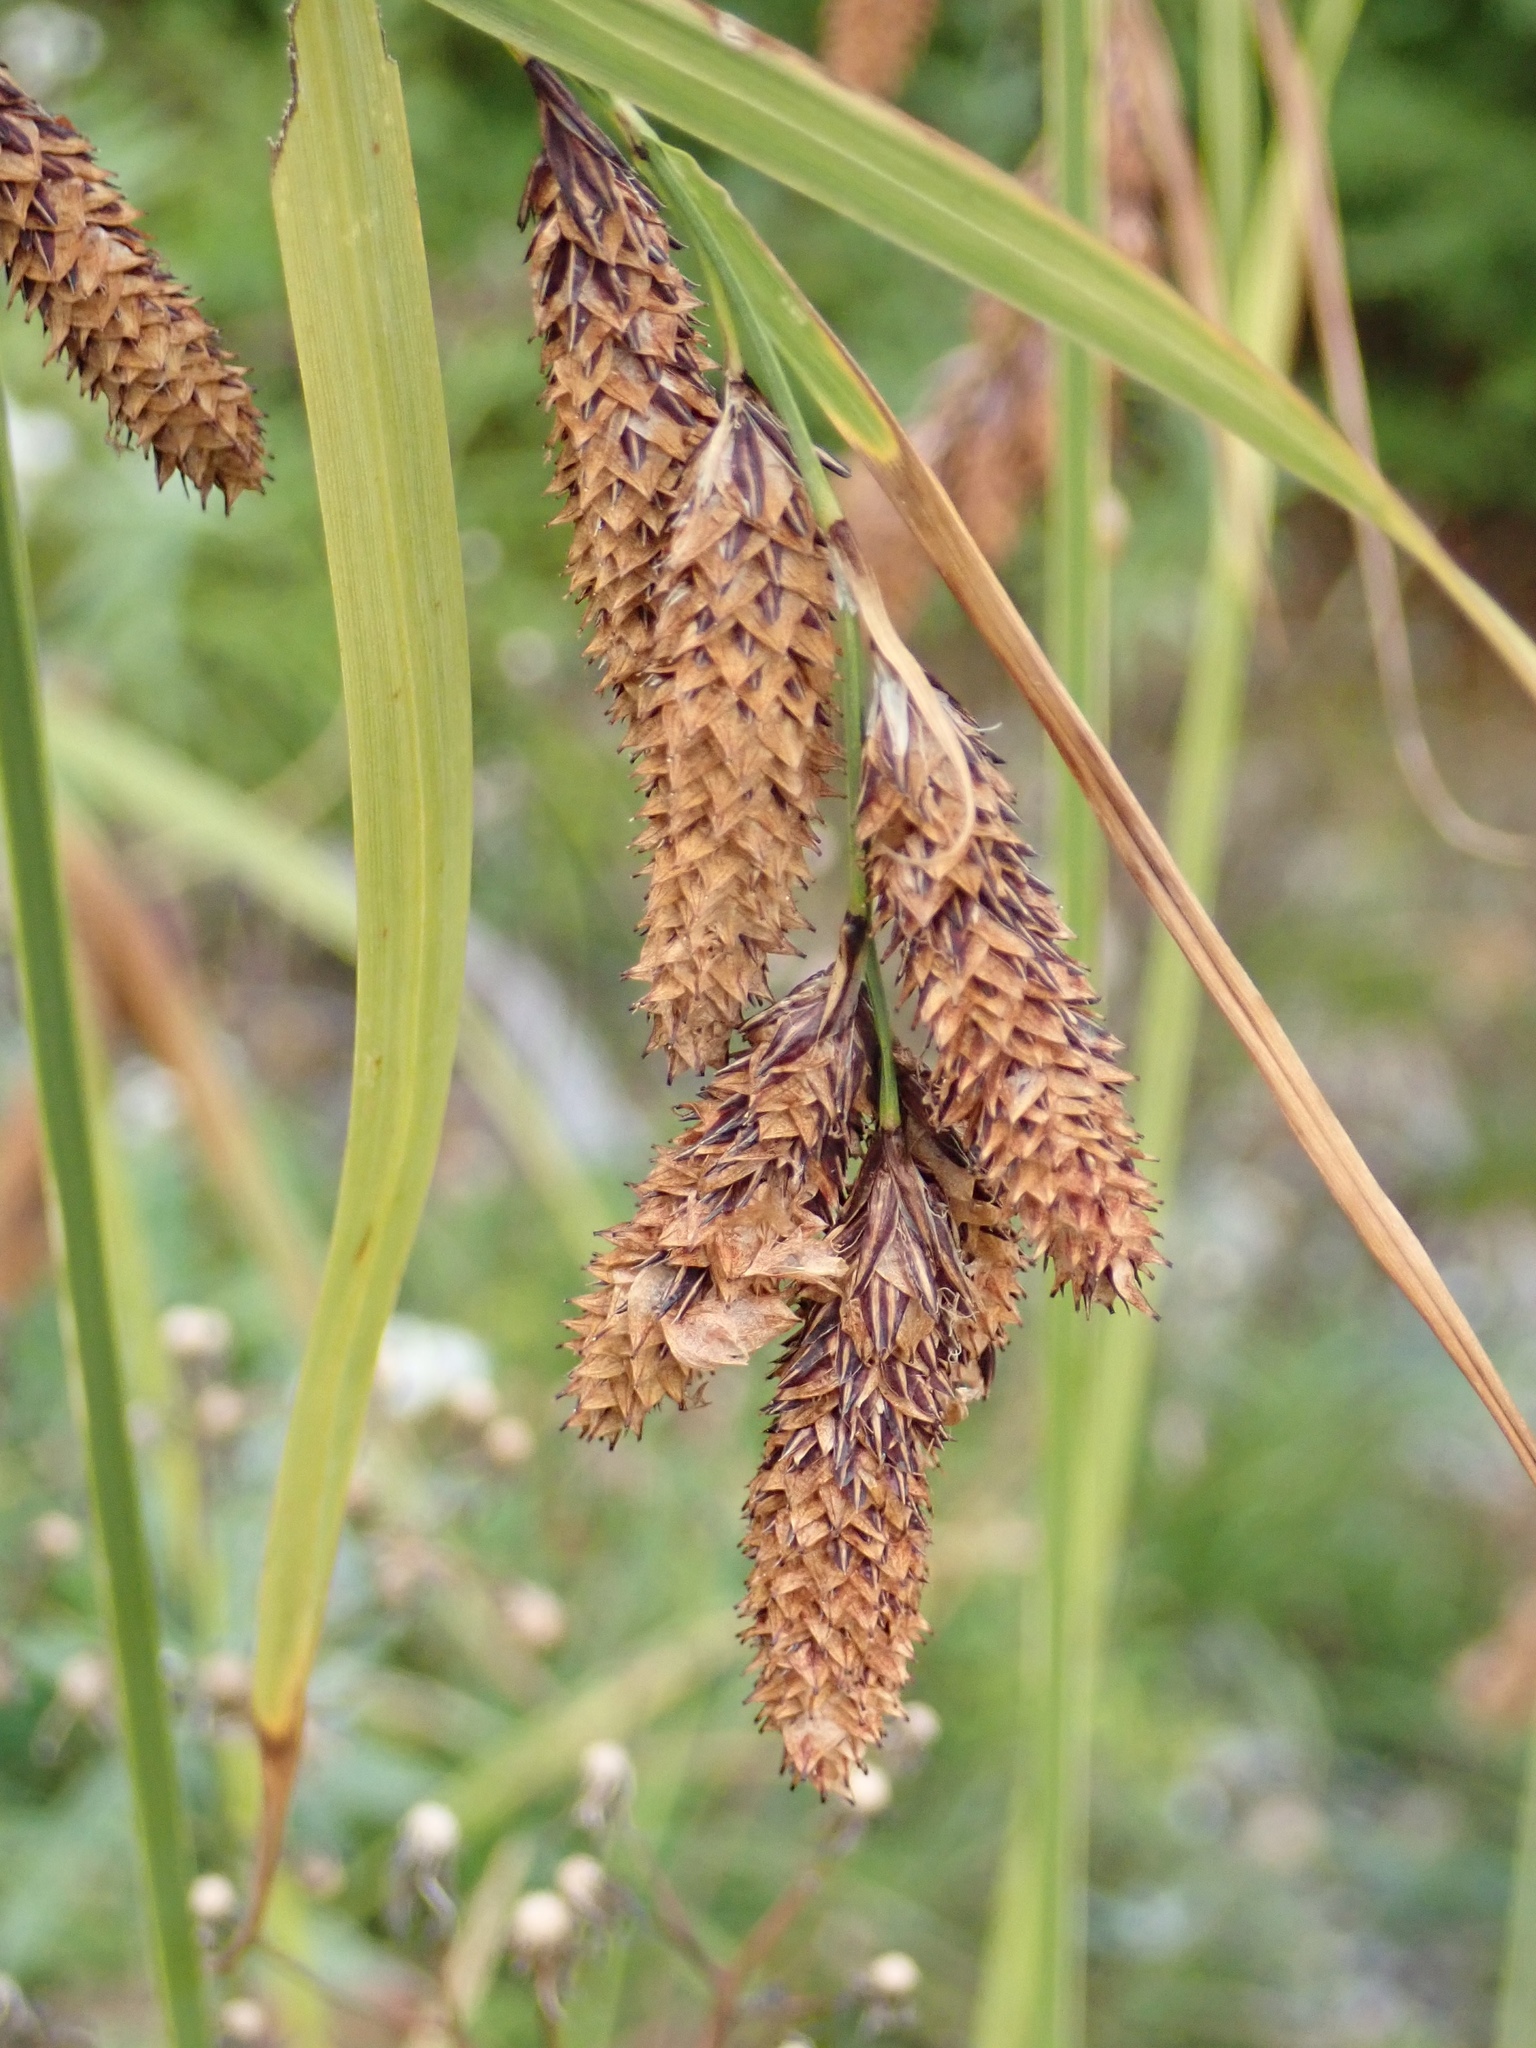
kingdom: Plantae
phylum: Tracheophyta
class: Liliopsida
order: Poales
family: Cyperaceae
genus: Carex
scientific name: Carex mertensii
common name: Mertens' sedge
